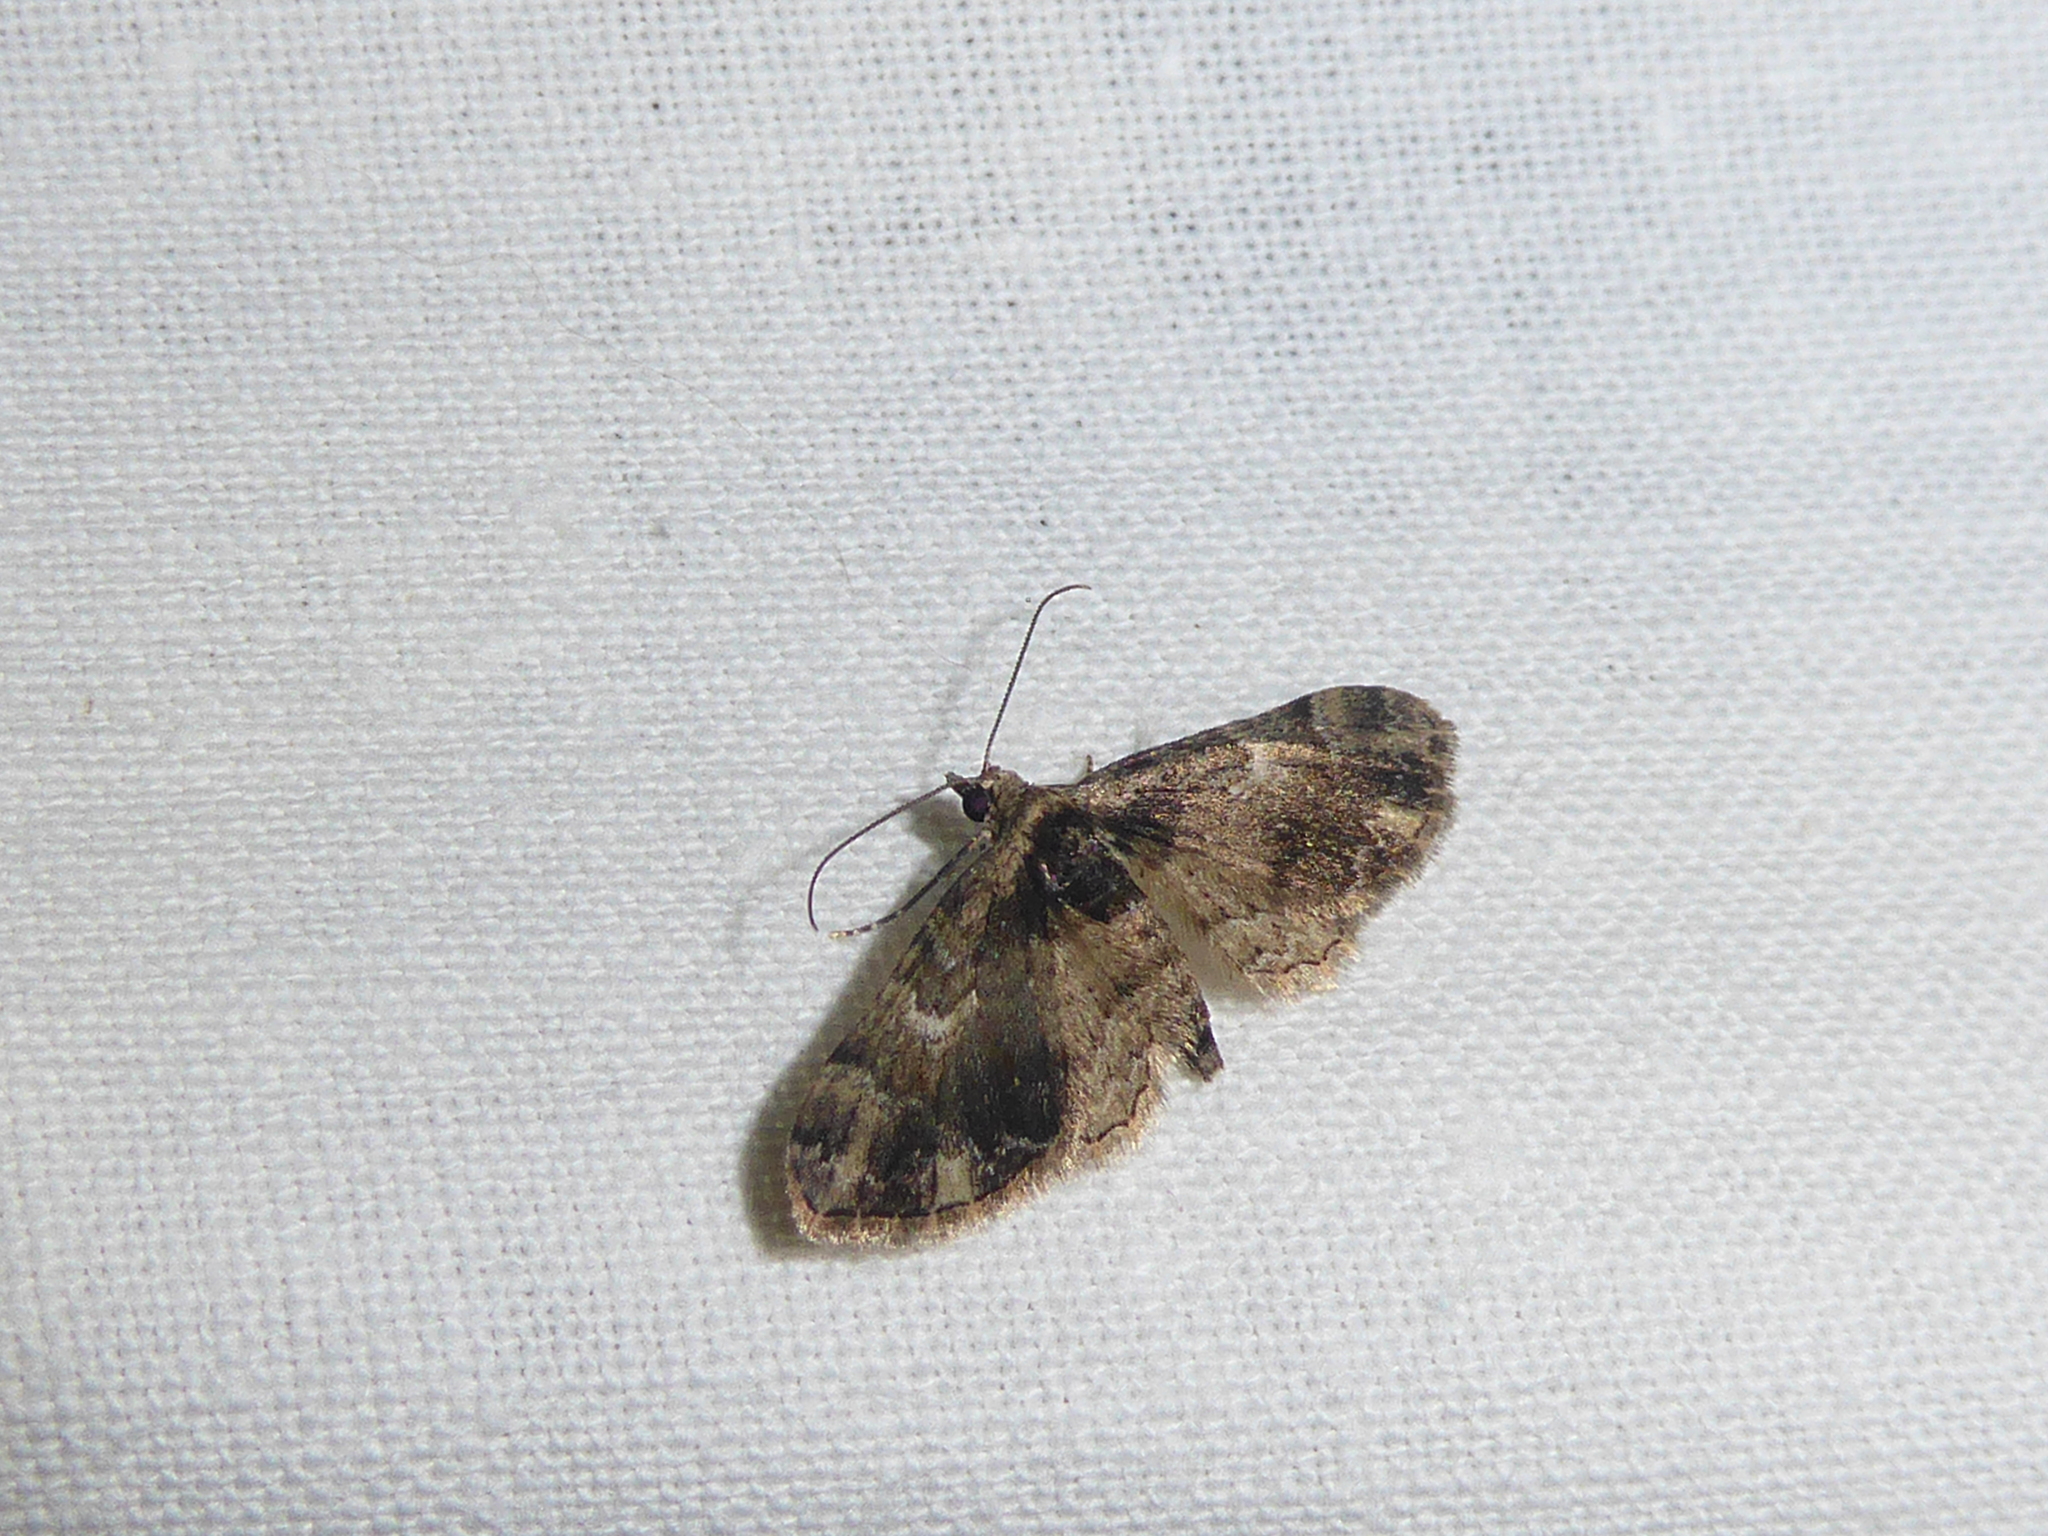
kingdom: Animalia
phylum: Arthropoda
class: Insecta
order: Lepidoptera
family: Geometridae
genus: Gymnoscelis
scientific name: Gymnoscelis insulariata
